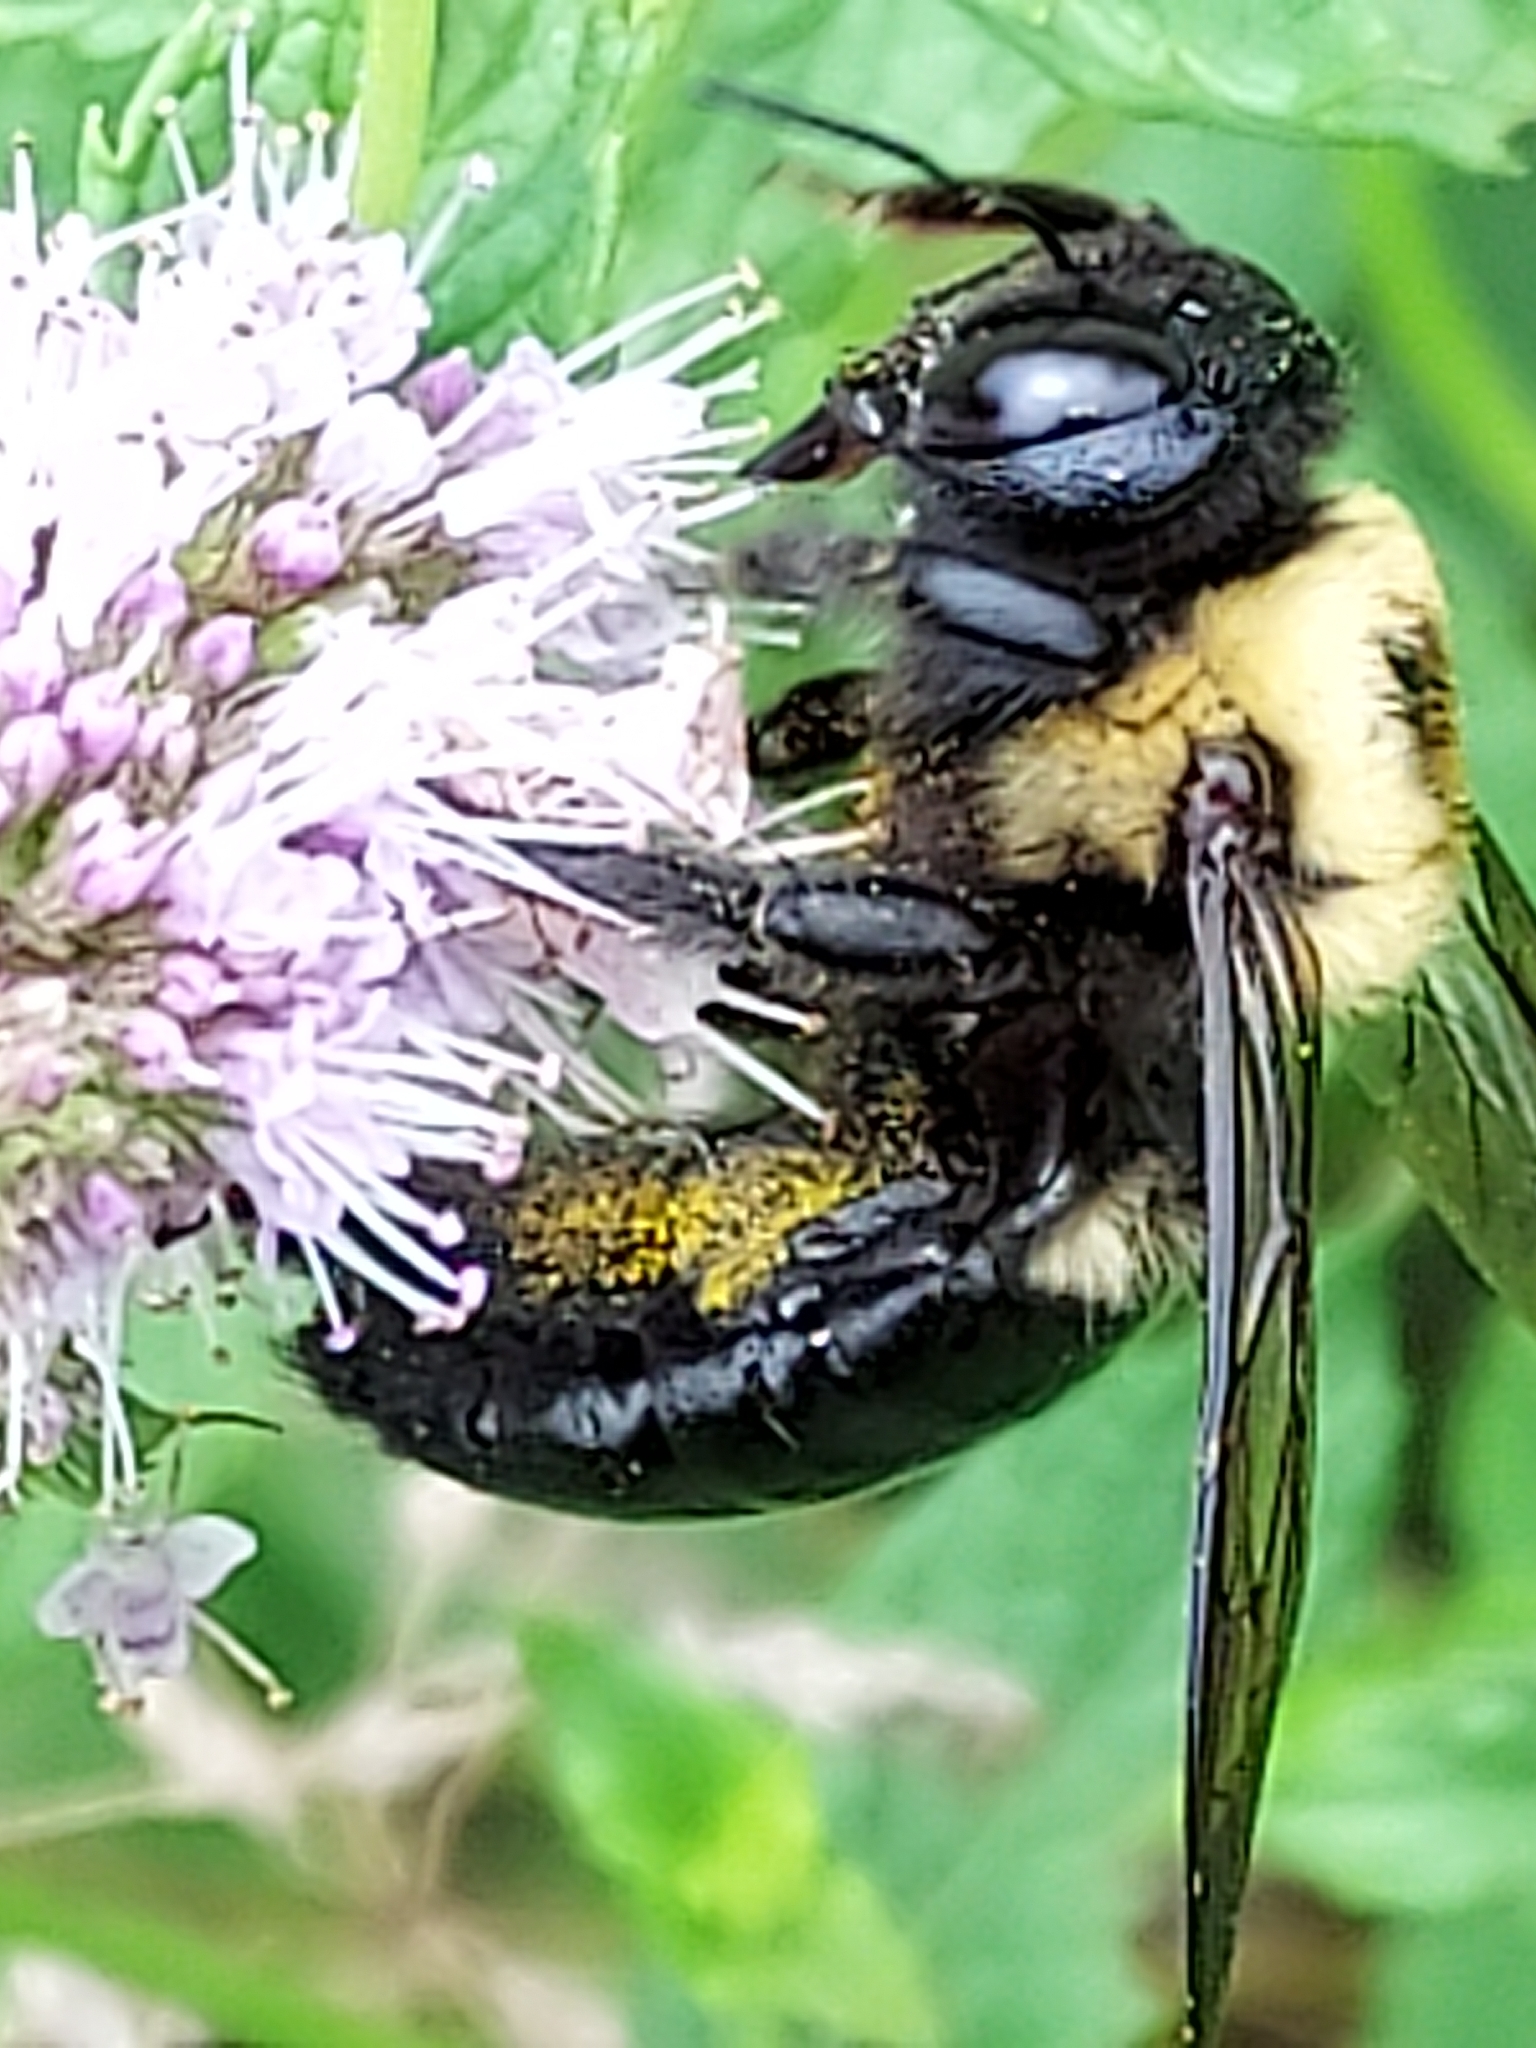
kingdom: Animalia
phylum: Arthropoda
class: Insecta
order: Hymenoptera
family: Apidae
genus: Xylocopa
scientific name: Xylocopa virginica
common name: Carpenter bee
